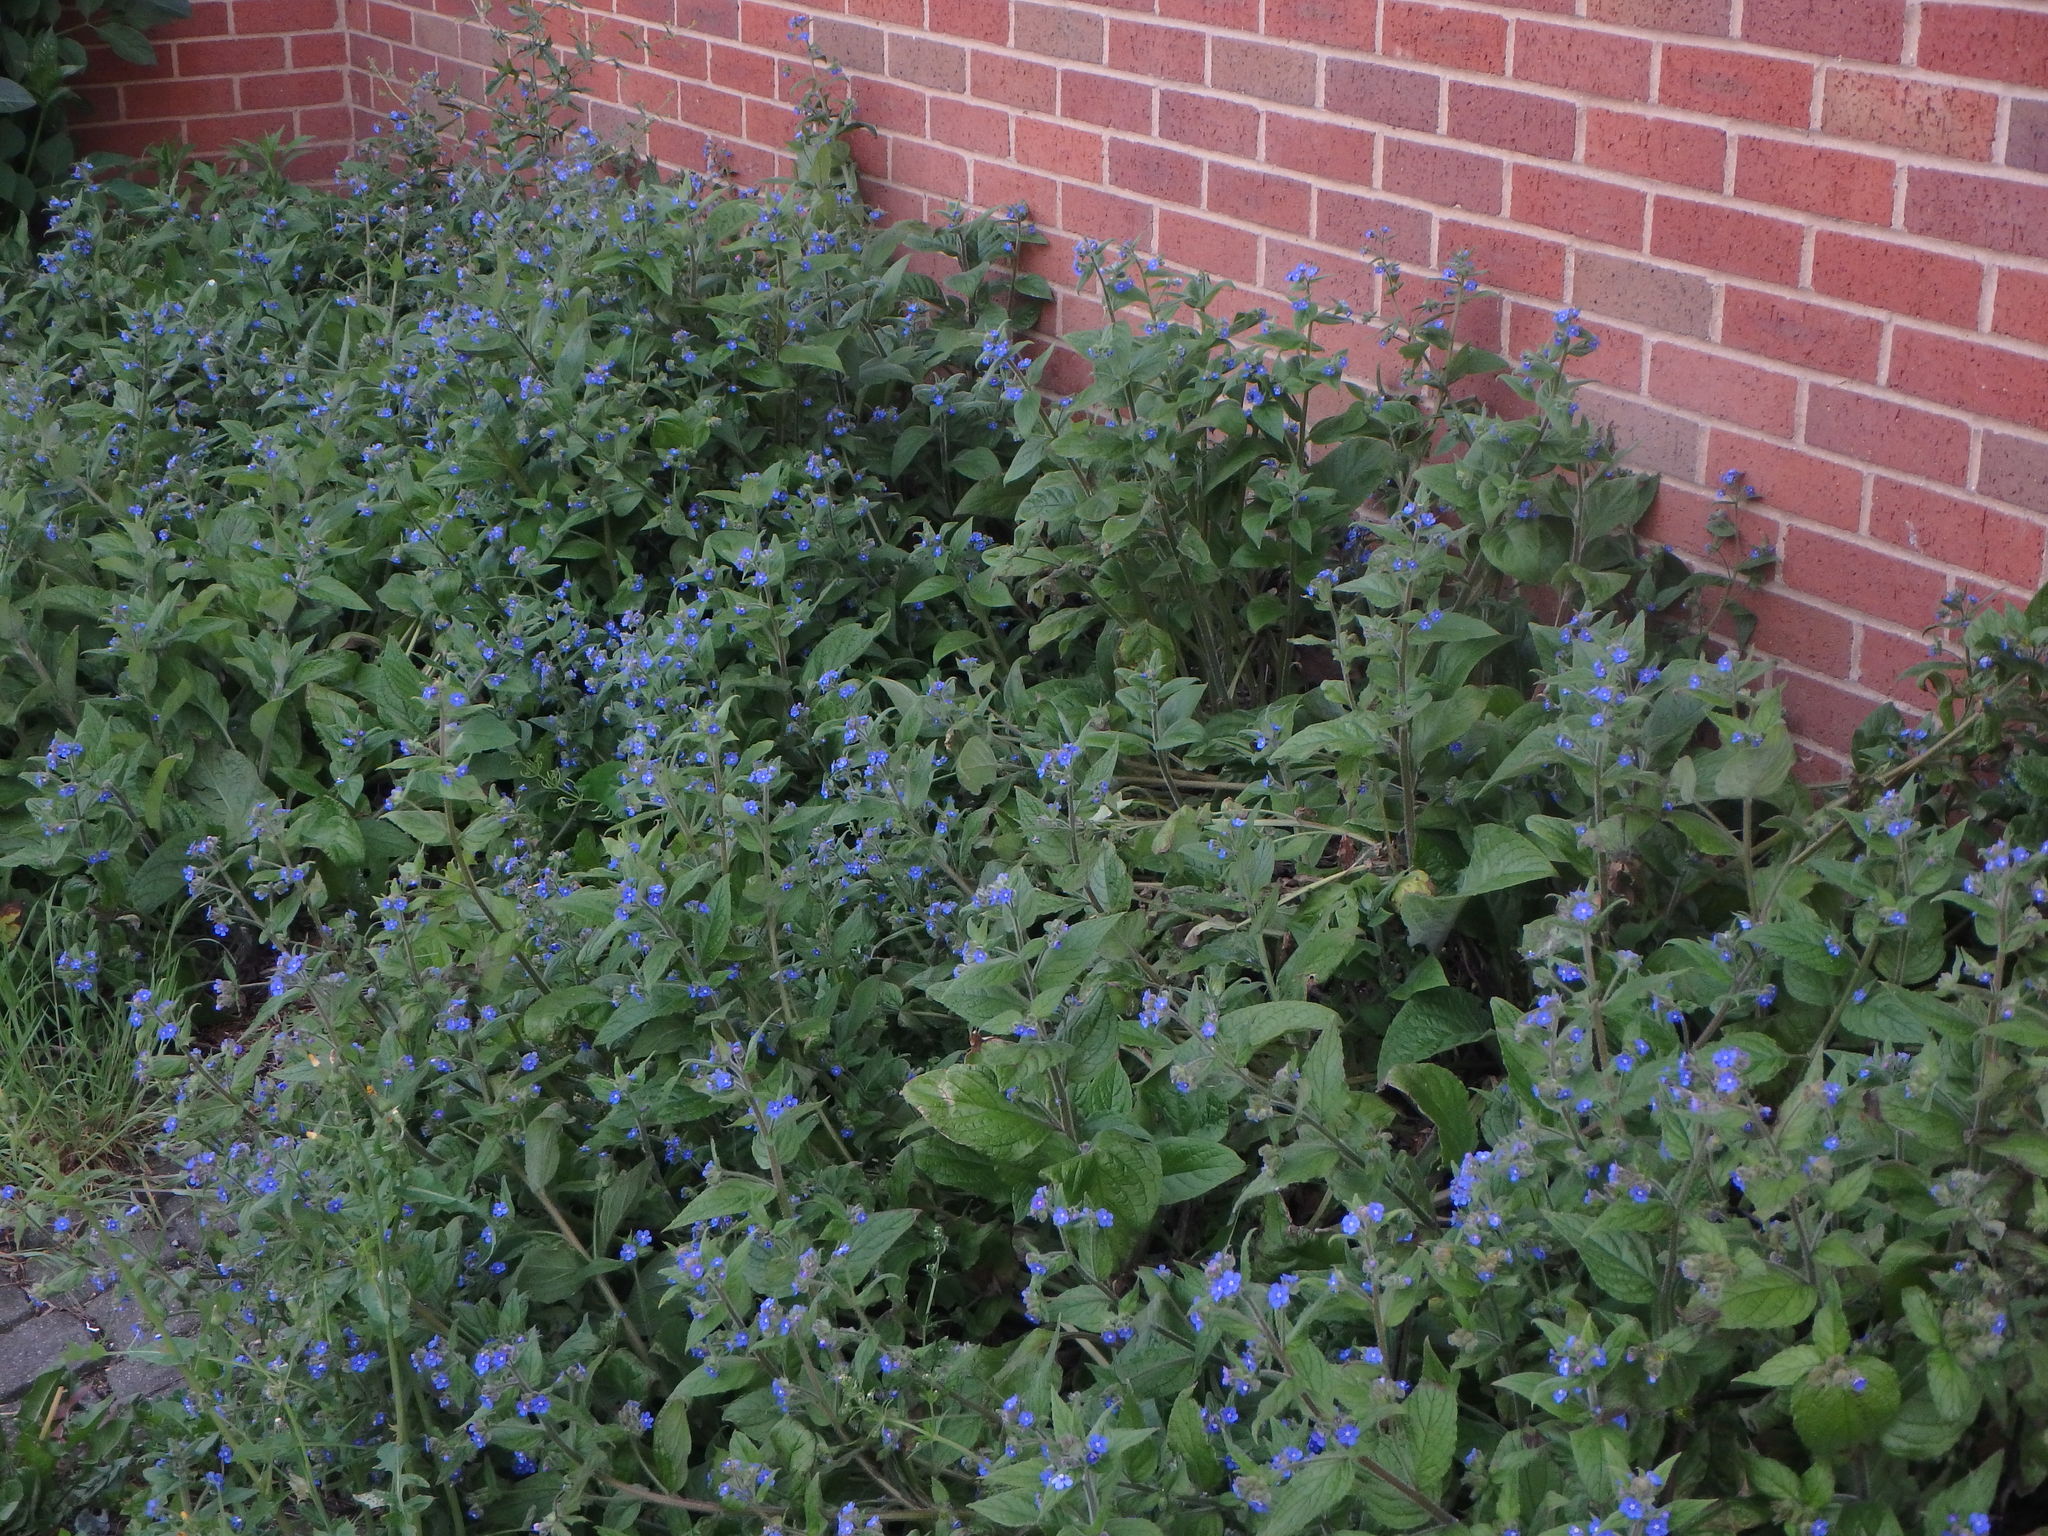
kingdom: Plantae
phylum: Tracheophyta
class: Magnoliopsida
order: Boraginales
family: Boraginaceae
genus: Pentaglottis
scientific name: Pentaglottis sempervirens
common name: Green alkanet
